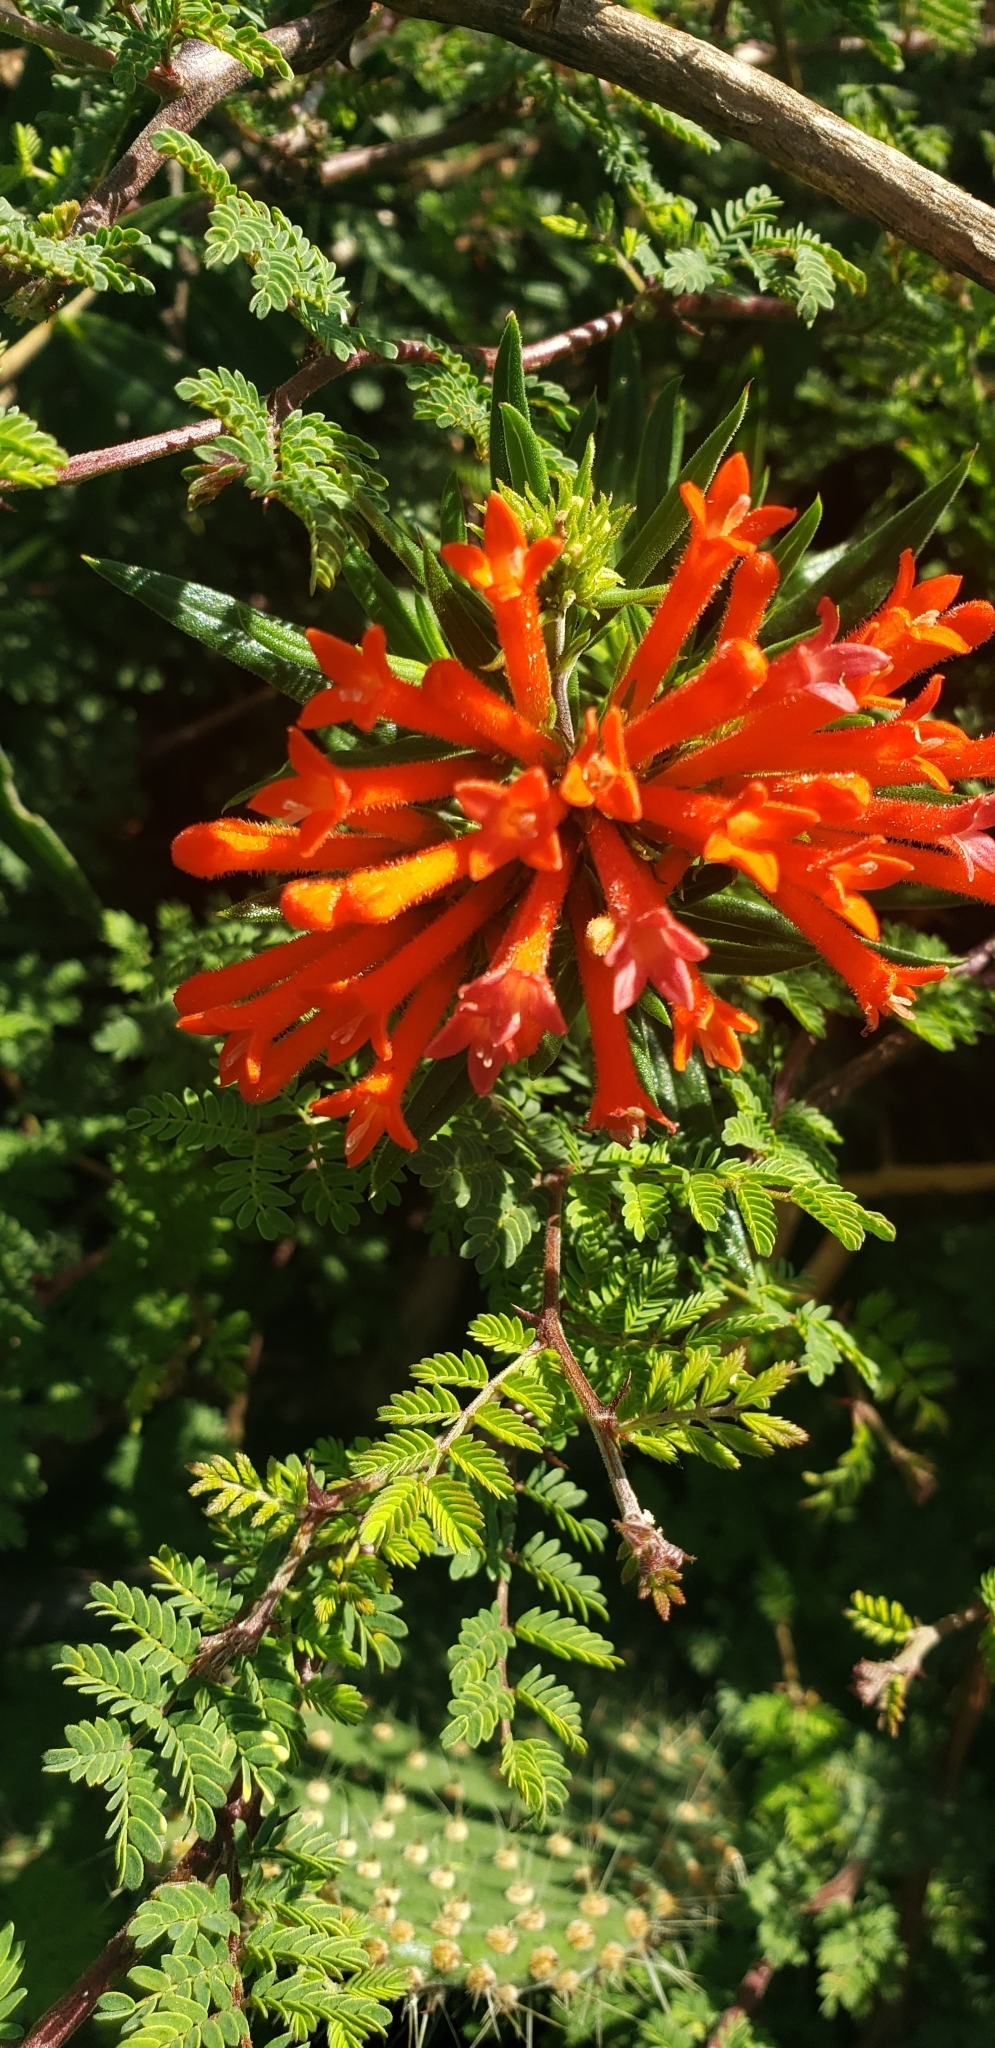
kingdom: Plantae
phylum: Tracheophyta
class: Magnoliopsida
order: Gentianales
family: Rubiaceae
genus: Bouvardia
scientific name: Bouvardia ternifolia
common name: Scarlet bouvardia
